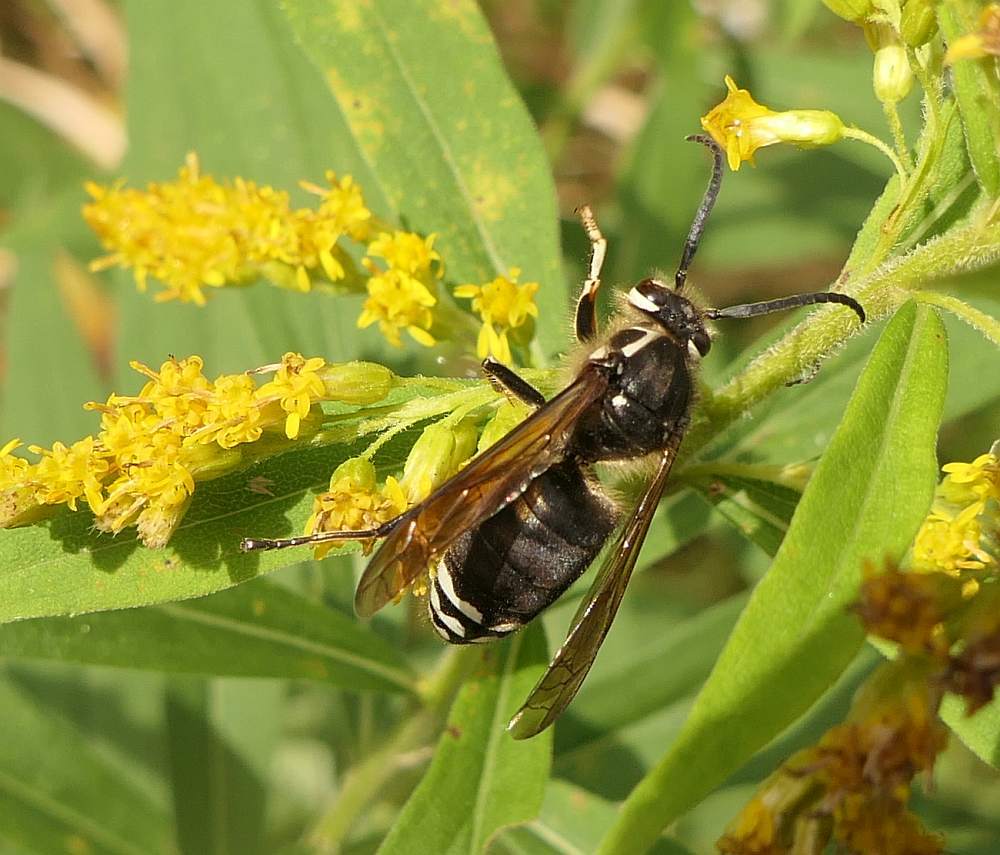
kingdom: Animalia
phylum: Arthropoda
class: Insecta
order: Hymenoptera
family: Vespidae
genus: Dolichovespula
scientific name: Dolichovespula maculata
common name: Bald-faced hornet
